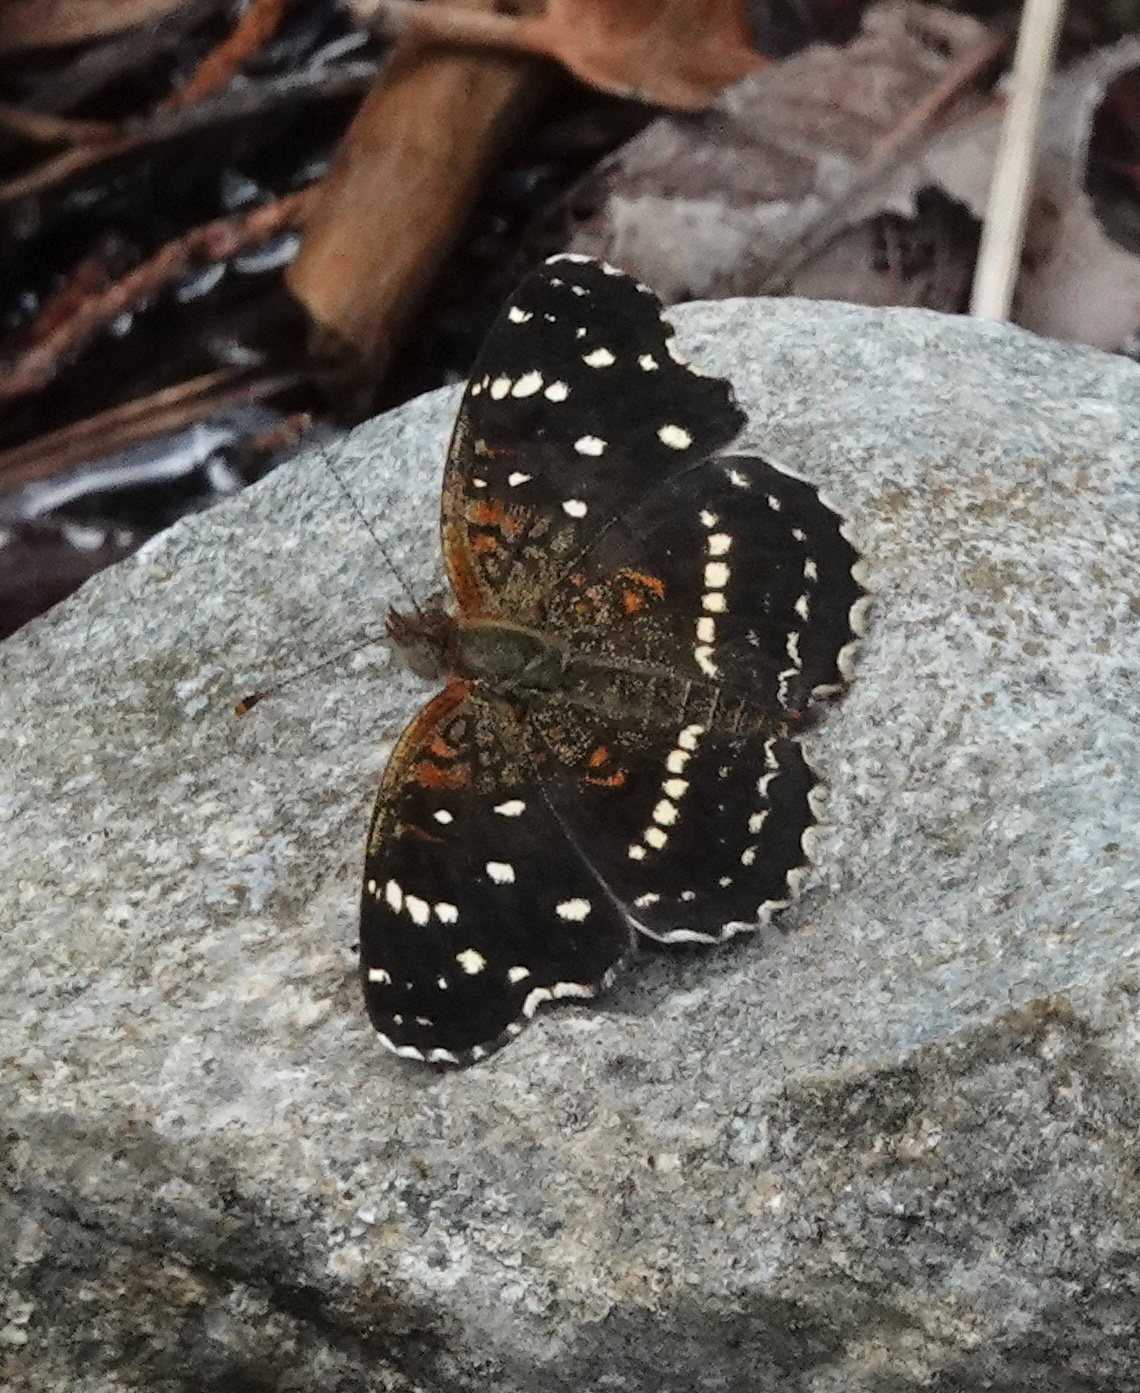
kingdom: Animalia
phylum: Arthropoda
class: Insecta
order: Lepidoptera
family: Nymphalidae
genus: Anthanassa
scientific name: Anthanassa texana
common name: Texan crescent
